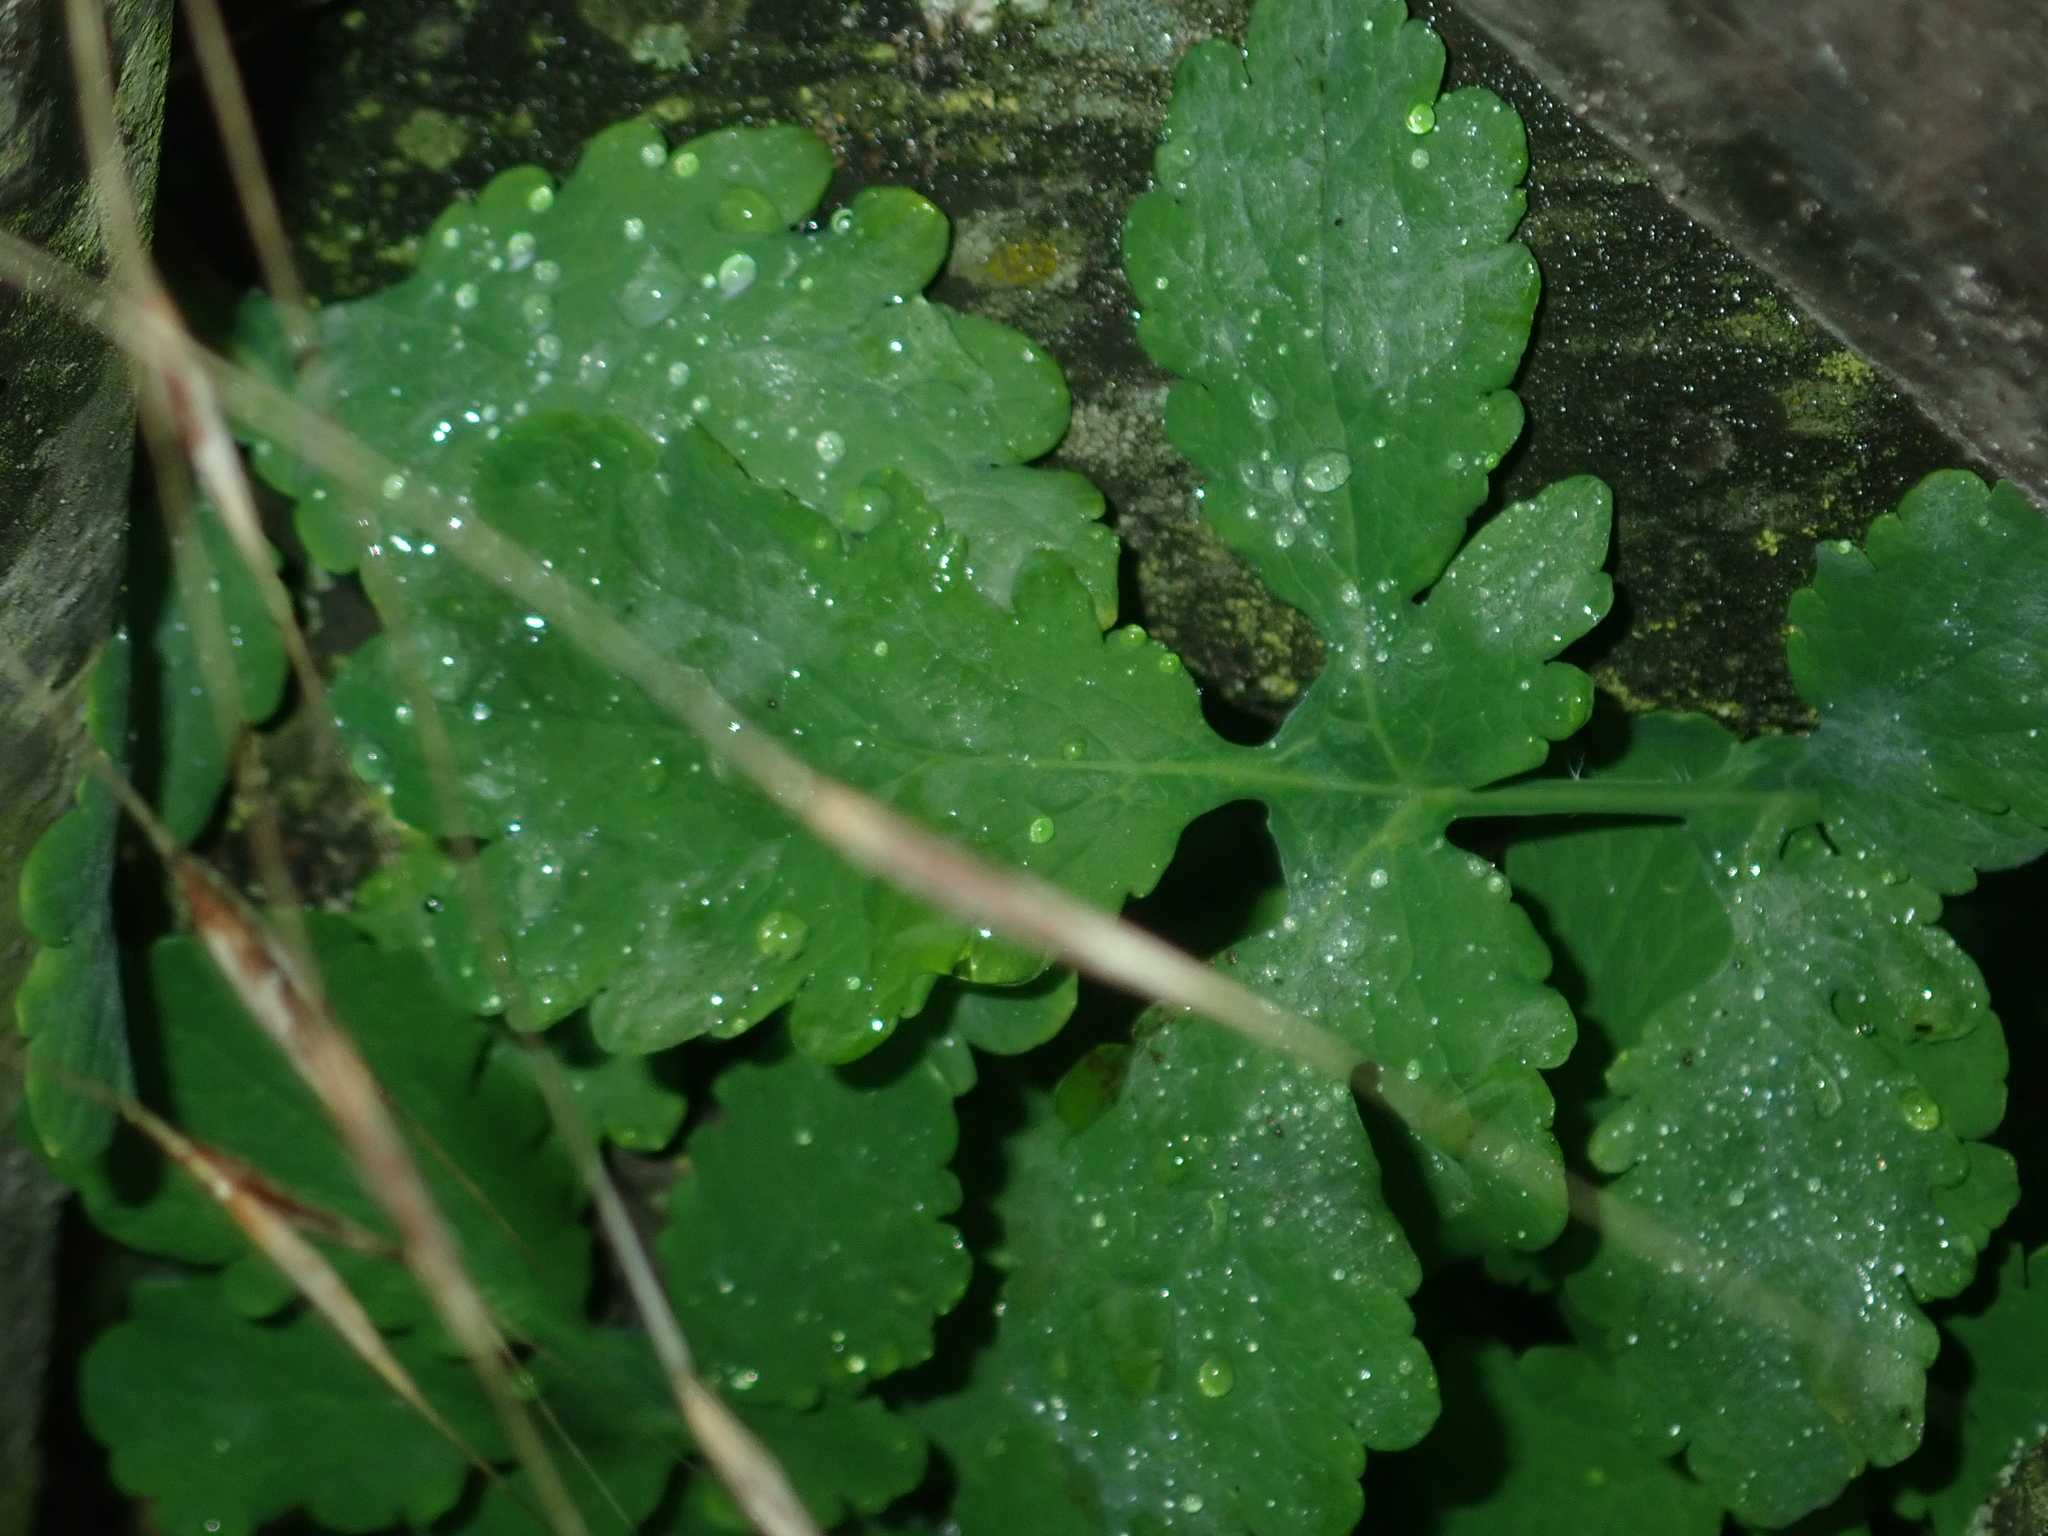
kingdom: Plantae
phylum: Tracheophyta
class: Magnoliopsida
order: Ranunculales
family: Papaveraceae
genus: Chelidonium
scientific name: Chelidonium majus
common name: Greater celandine
